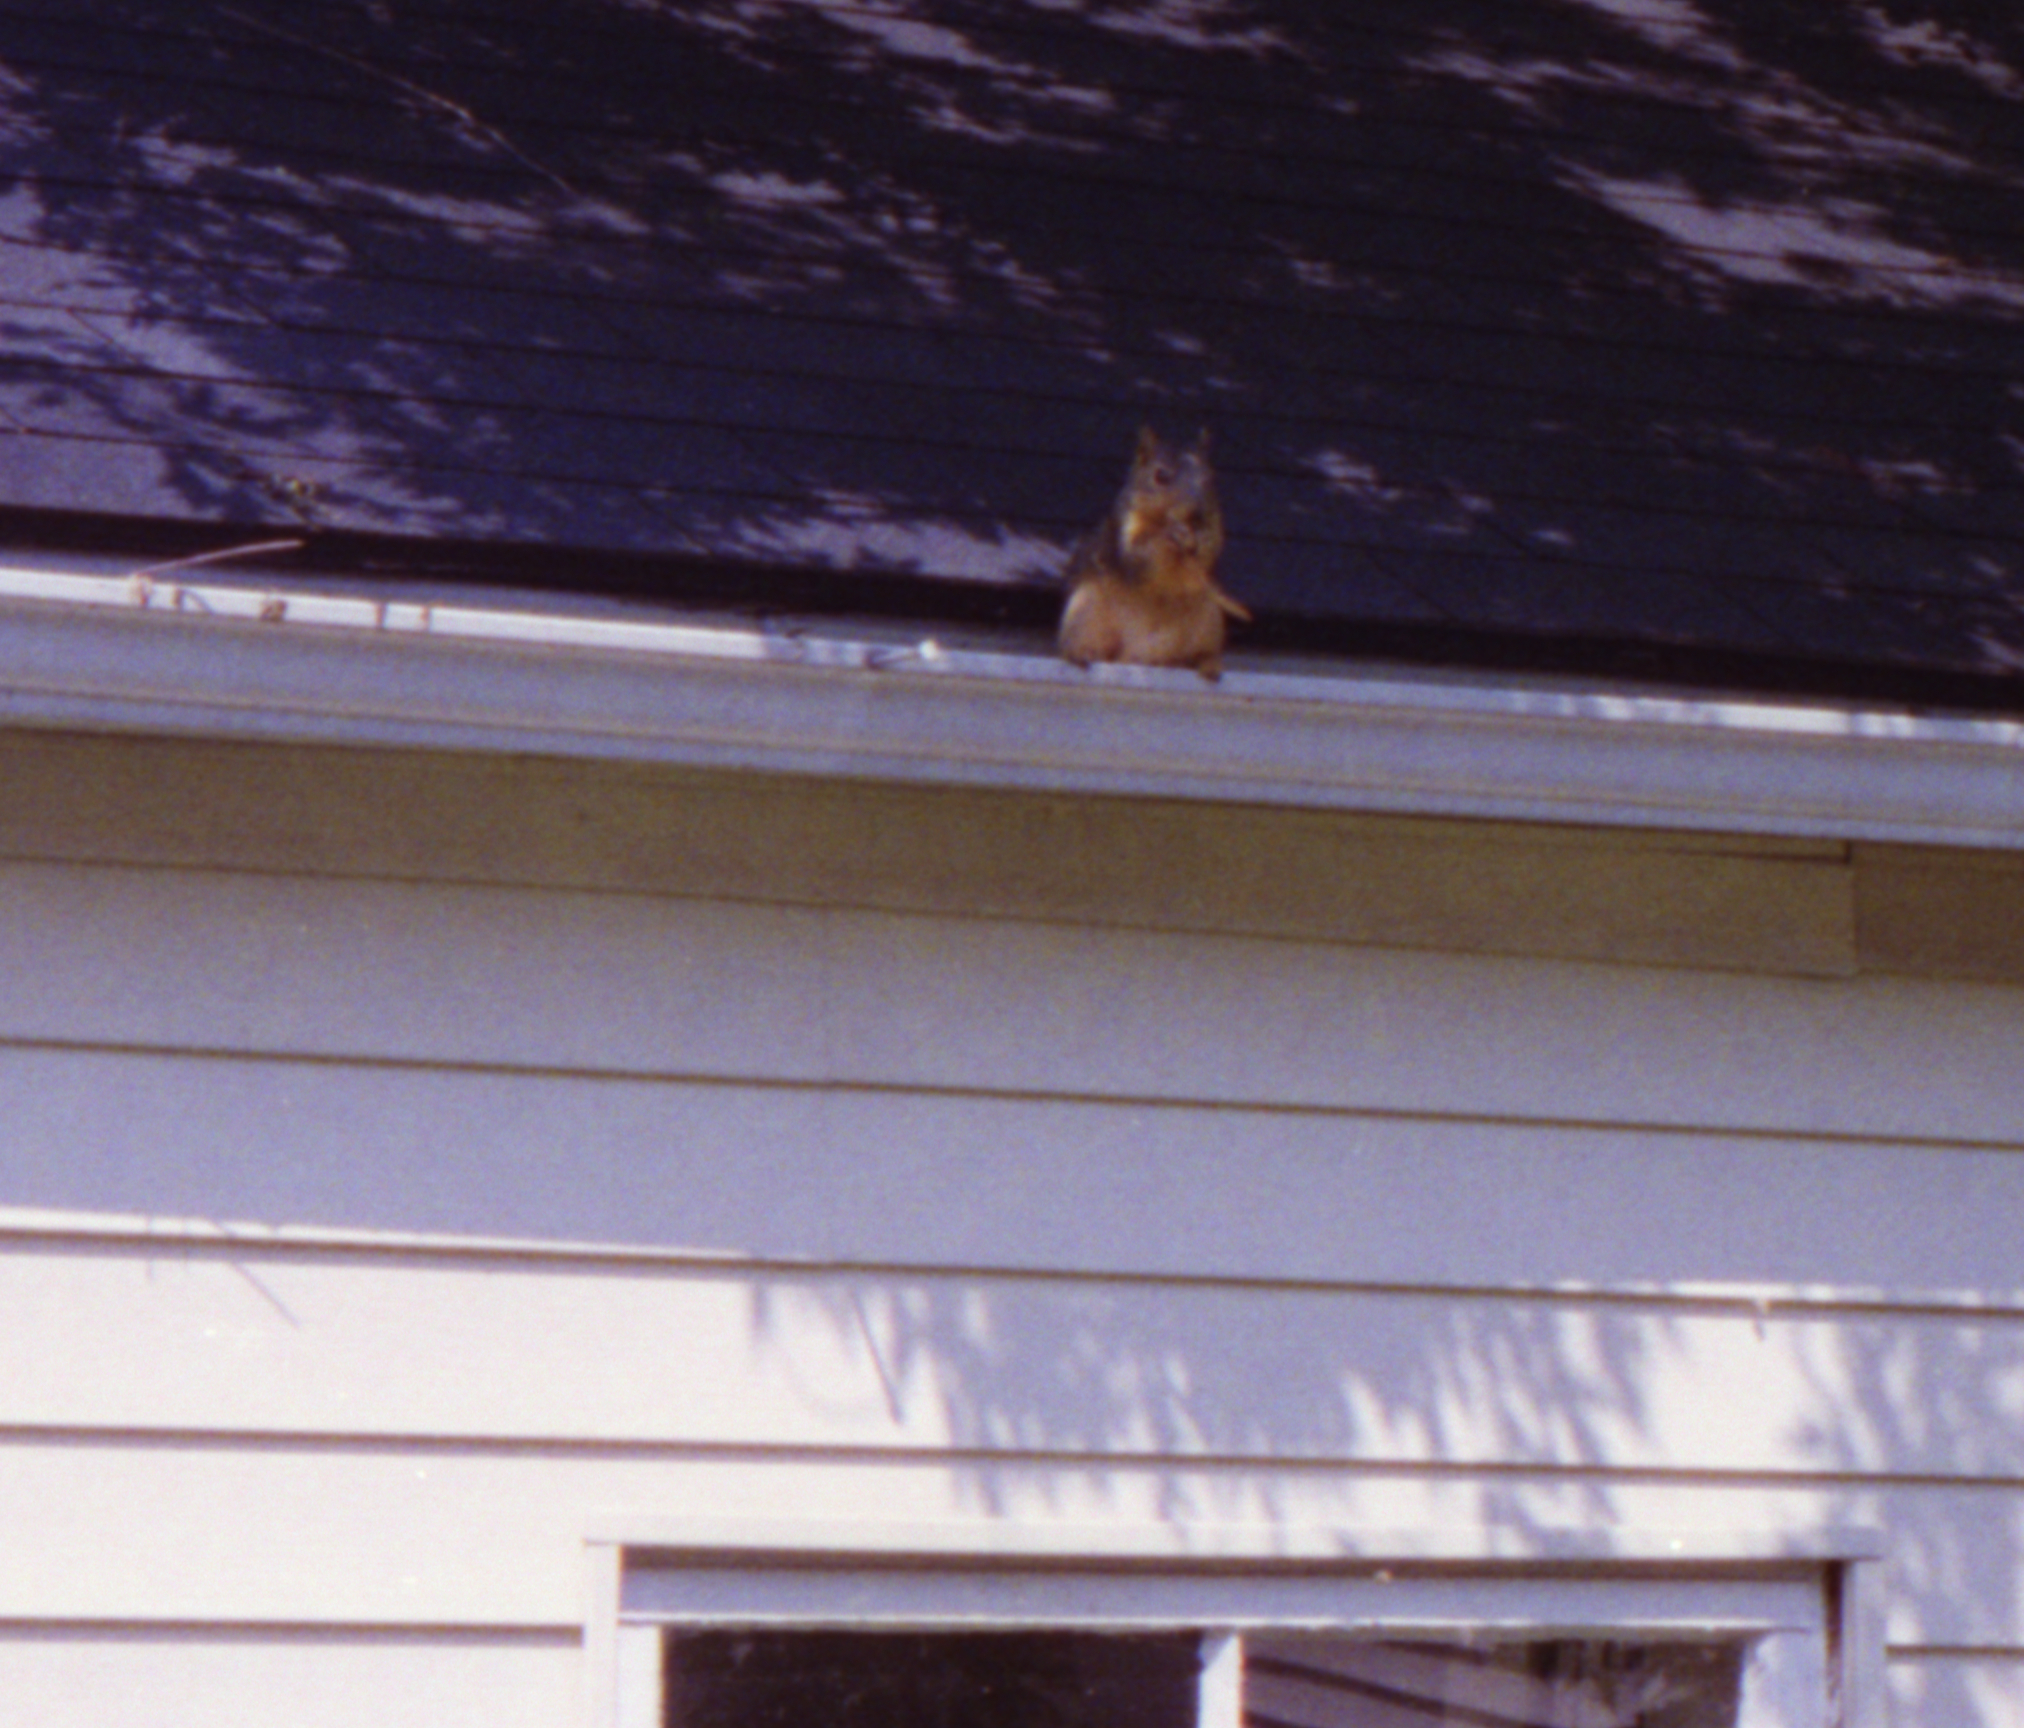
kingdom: Animalia
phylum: Chordata
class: Mammalia
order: Rodentia
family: Sciuridae
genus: Sciurus
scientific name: Sciurus niger
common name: Fox squirrel
